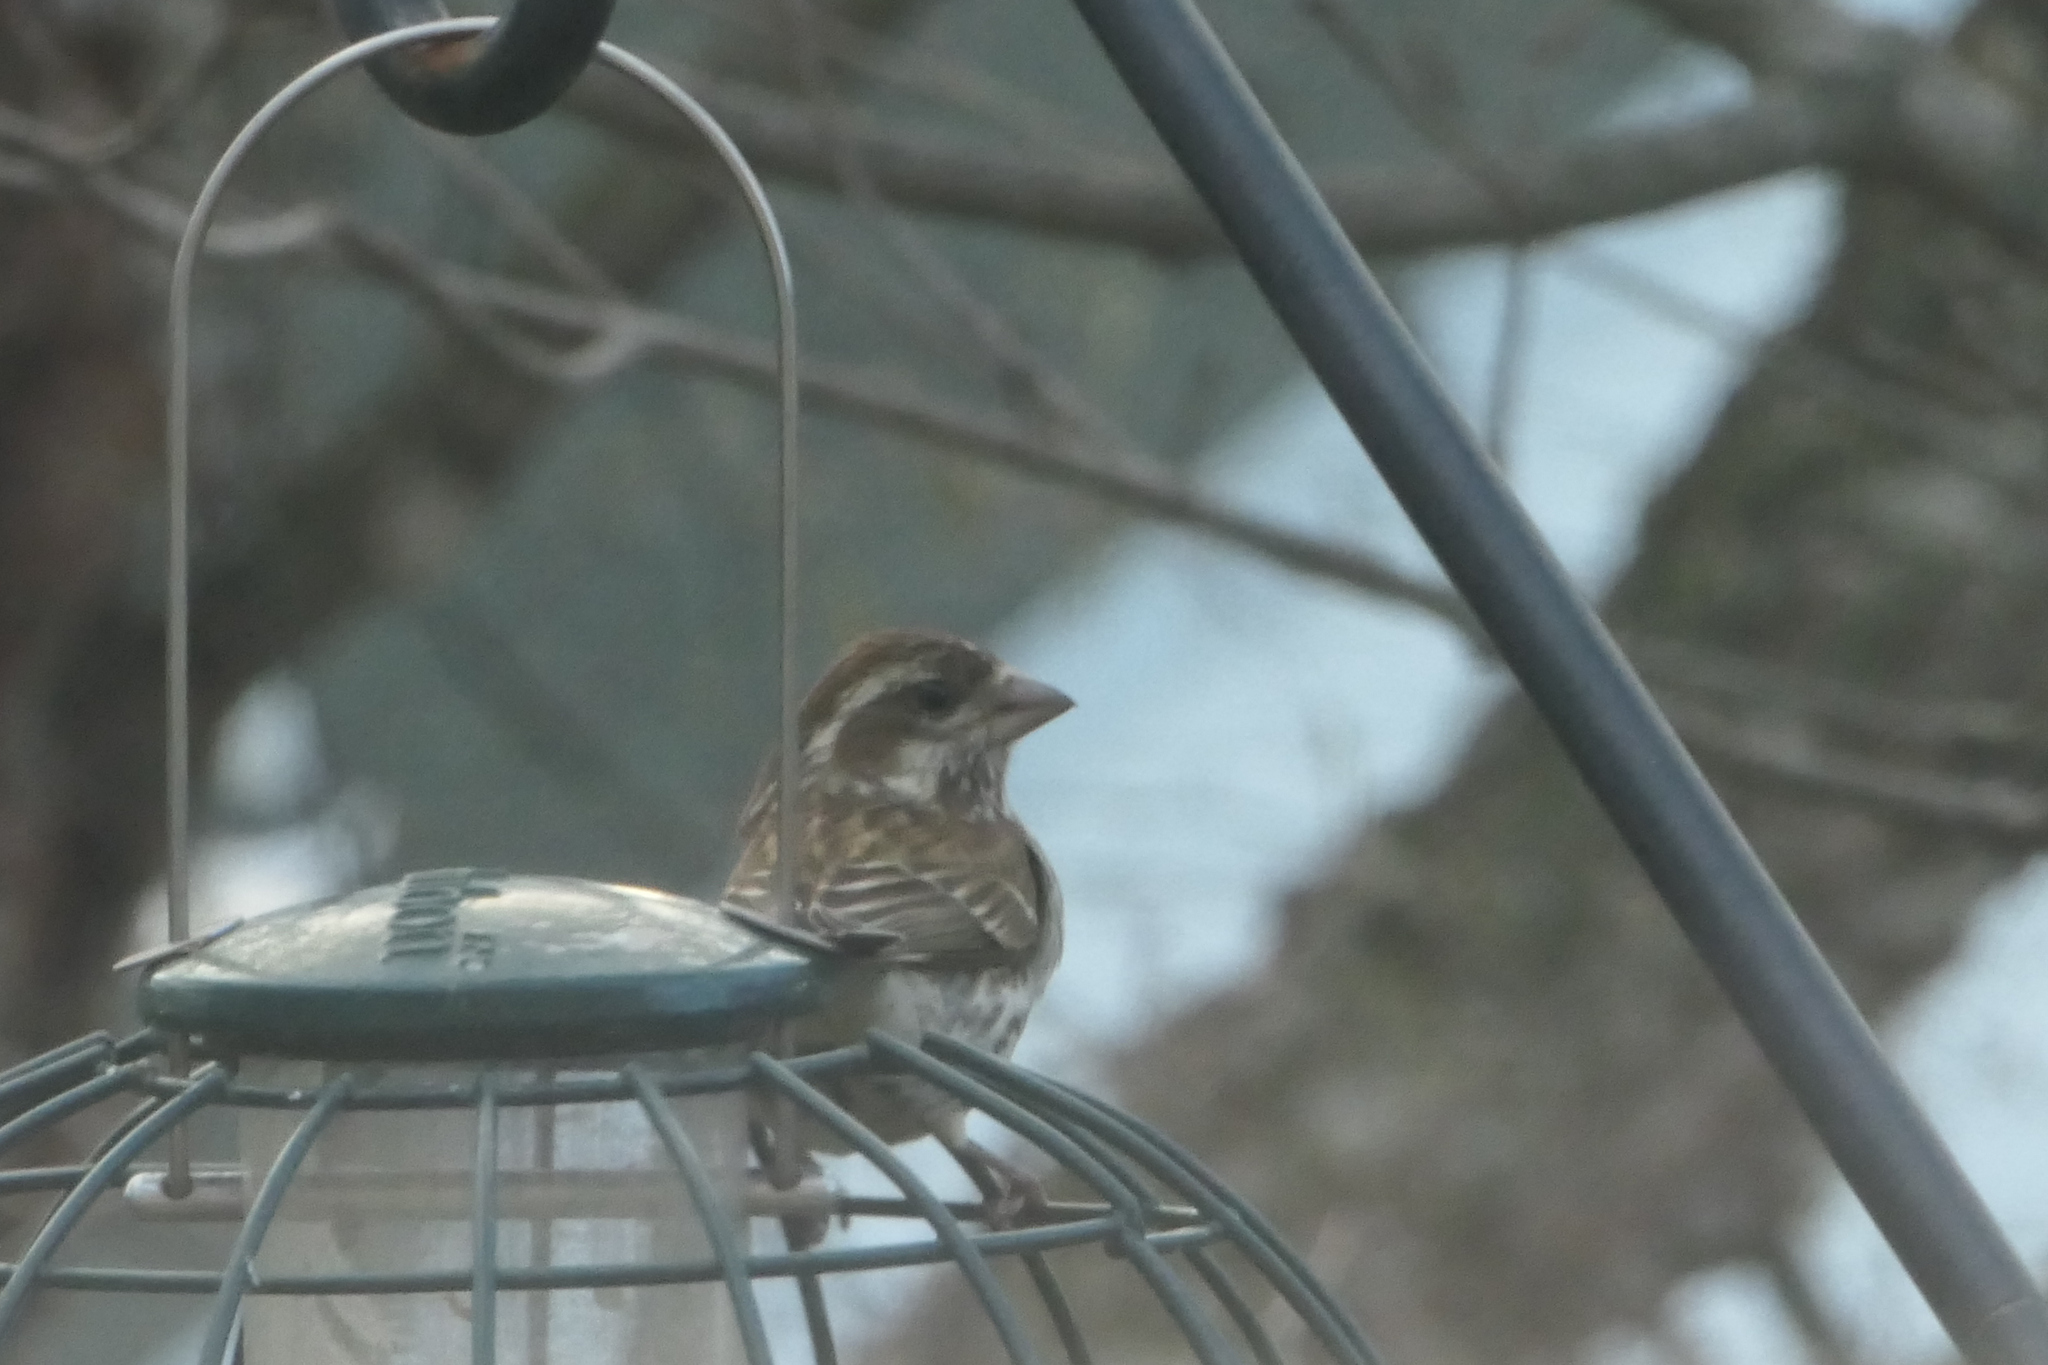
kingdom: Animalia
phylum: Chordata
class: Aves
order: Passeriformes
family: Fringillidae
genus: Haemorhous
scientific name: Haemorhous purpureus
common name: Purple finch
